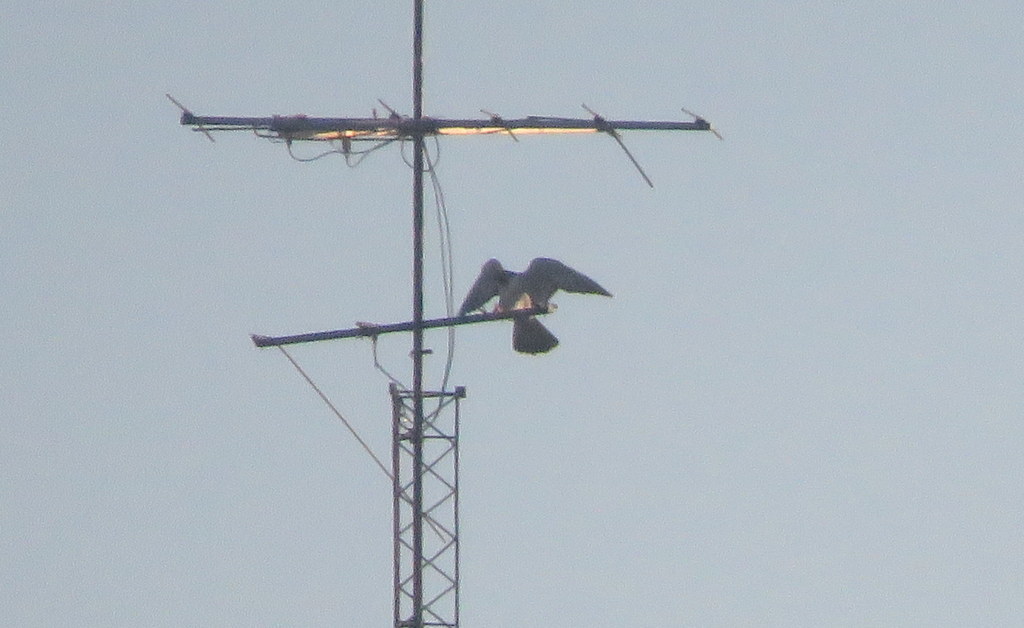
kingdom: Animalia
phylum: Chordata
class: Aves
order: Falconiformes
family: Falconidae
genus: Falco
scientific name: Falco peregrinus
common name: Peregrine falcon
